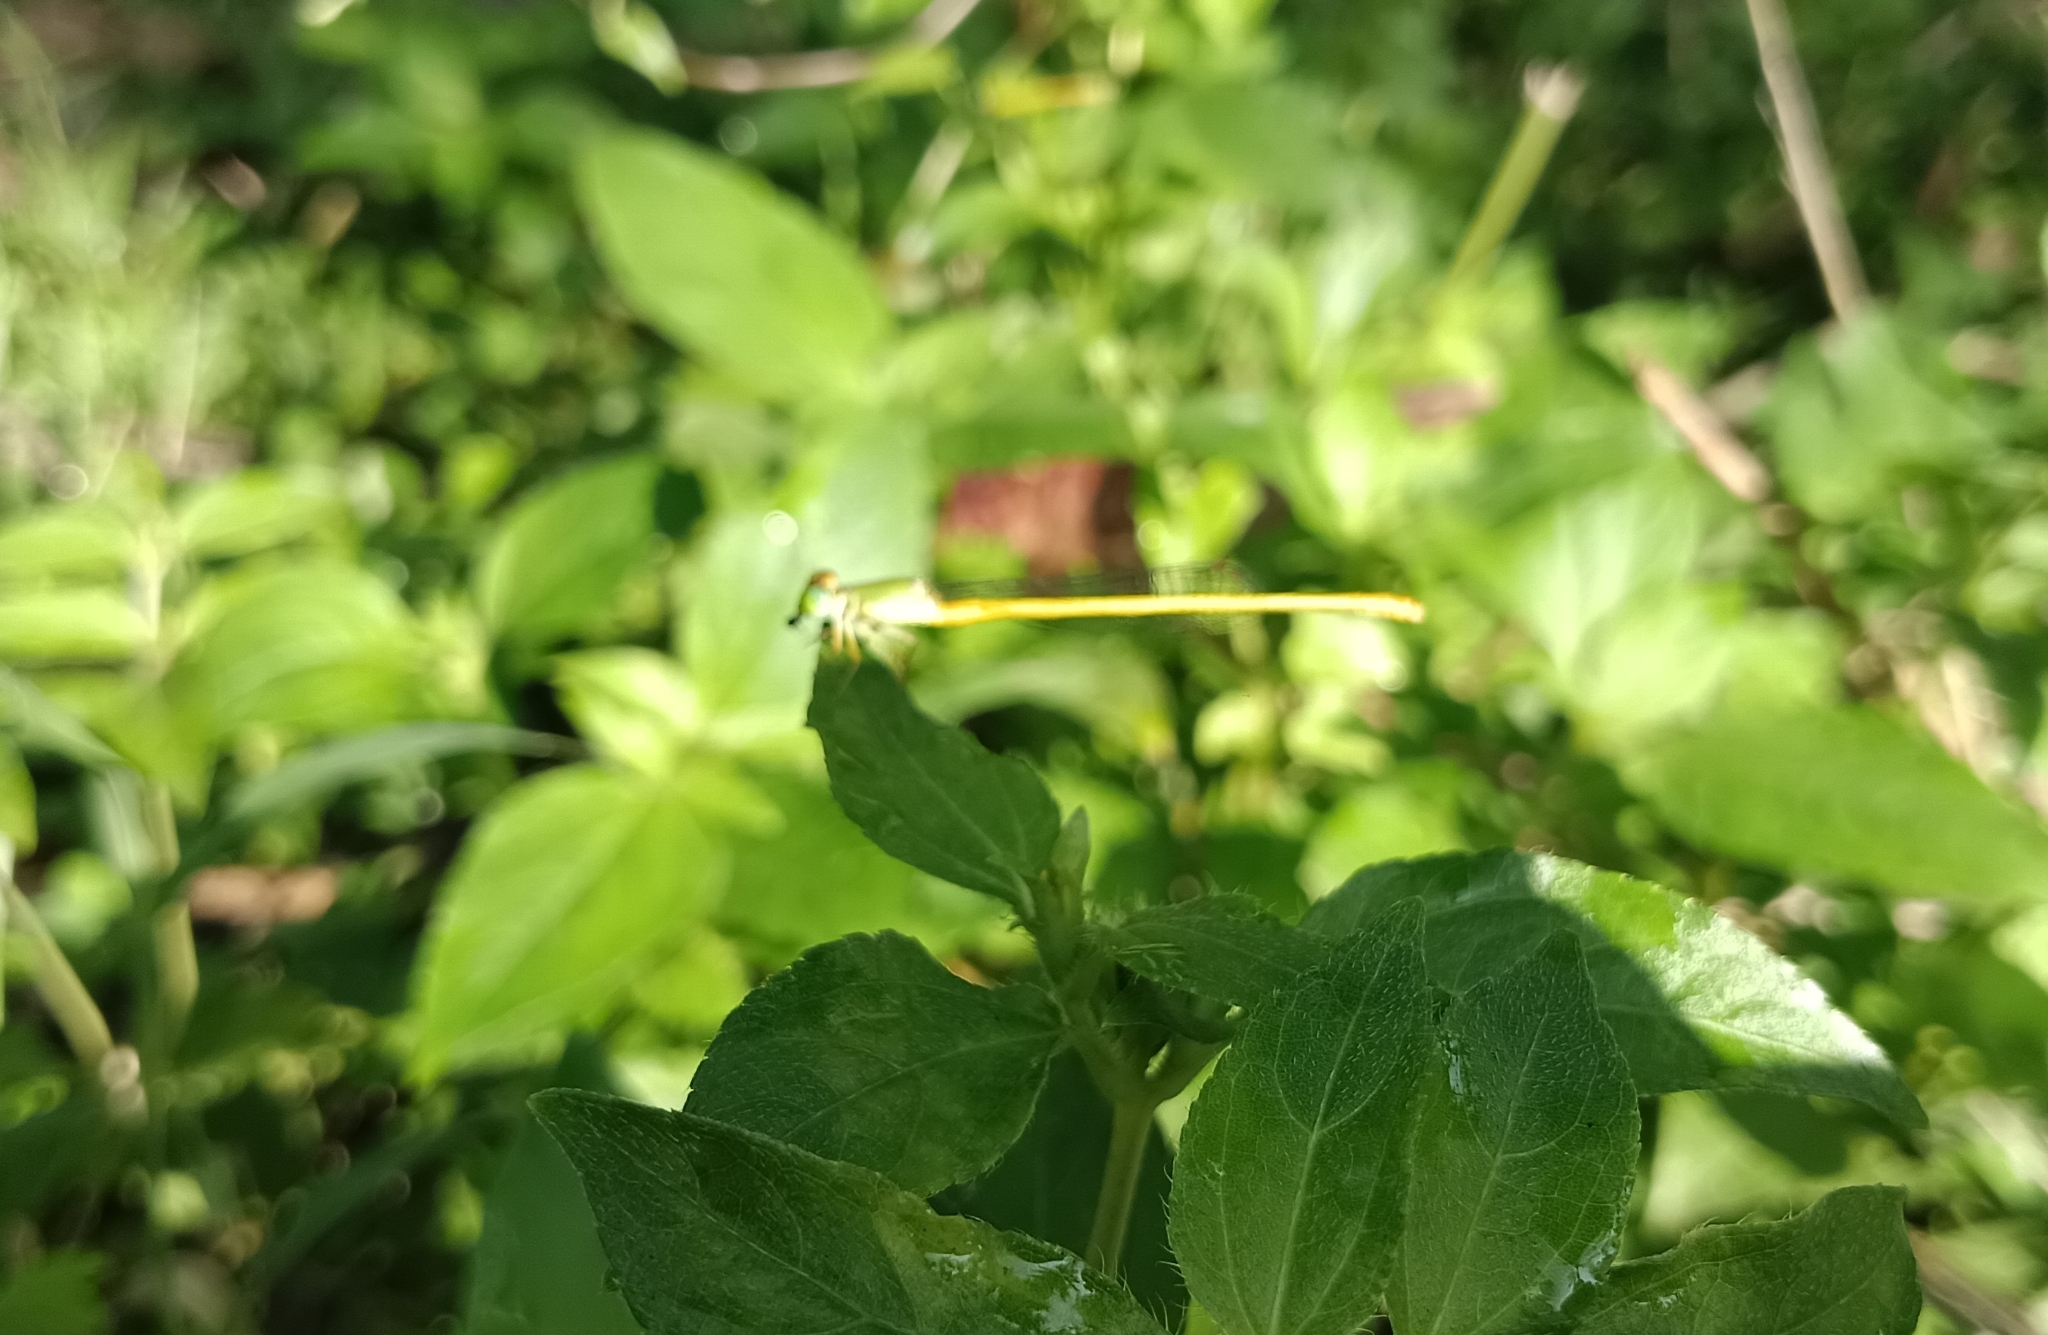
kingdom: Animalia
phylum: Arthropoda
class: Insecta
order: Odonata
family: Coenagrionidae
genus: Ceriagrion
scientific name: Ceriagrion coromandelianum
